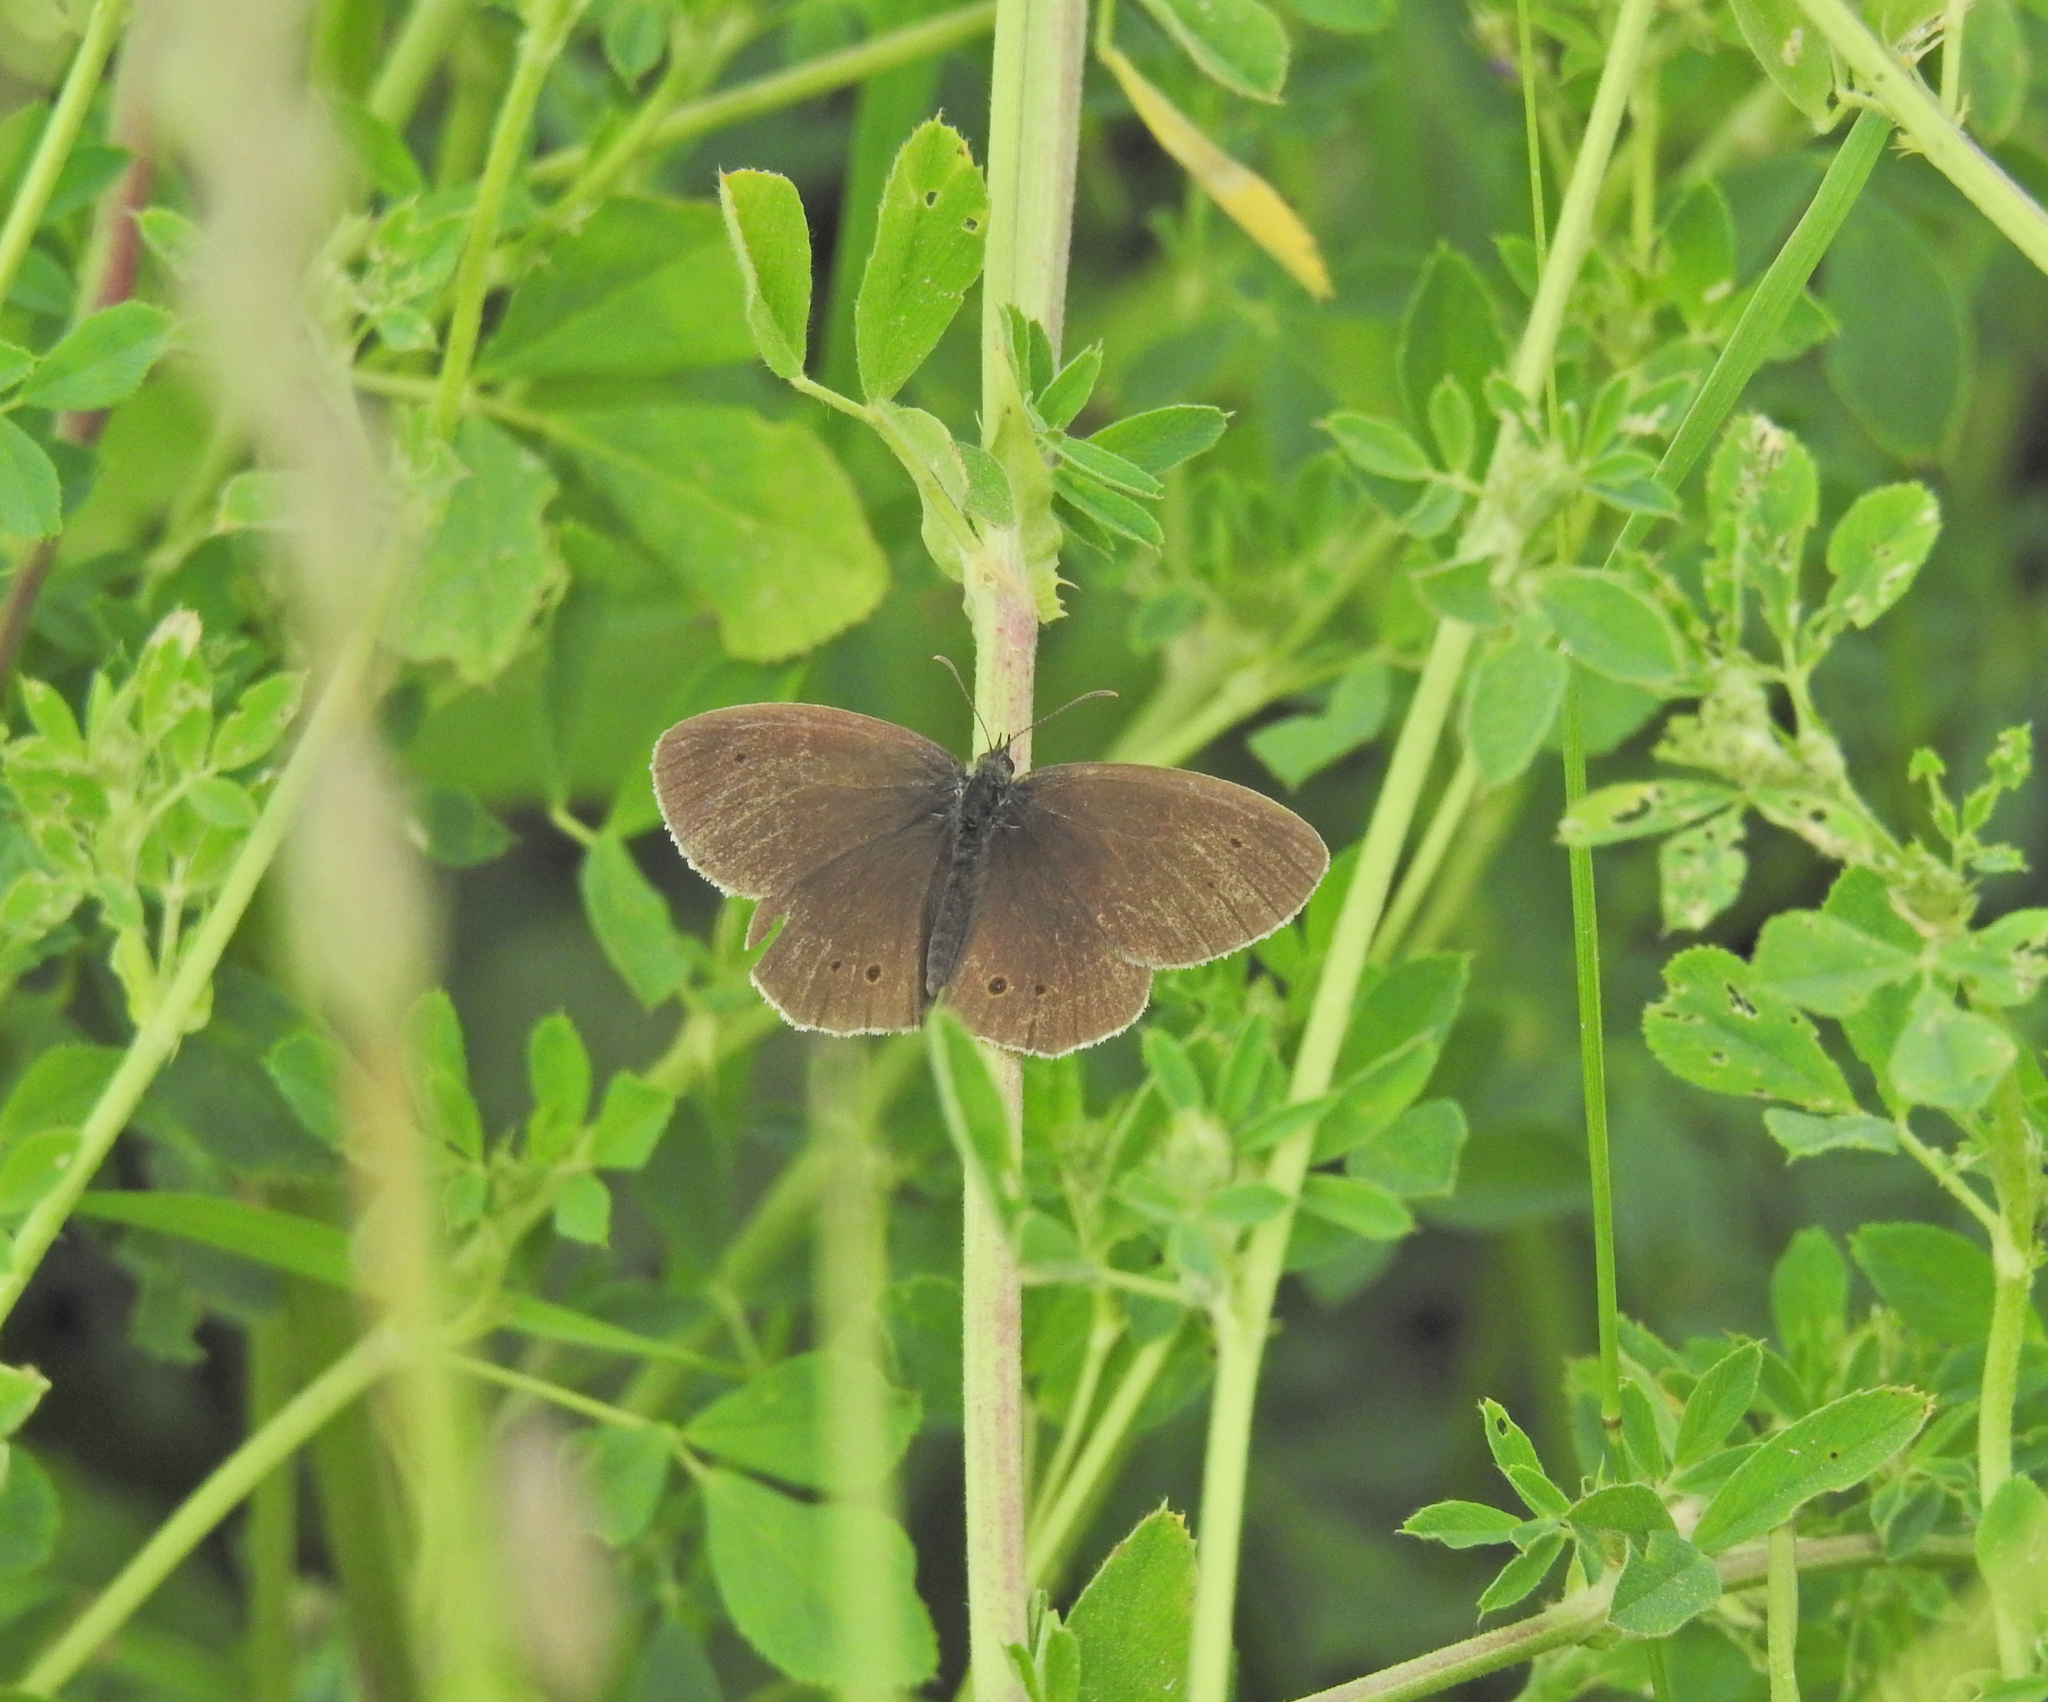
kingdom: Animalia
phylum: Arthropoda
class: Insecta
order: Lepidoptera
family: Nymphalidae
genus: Aphantopus
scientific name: Aphantopus hyperantus
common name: Ringlet
